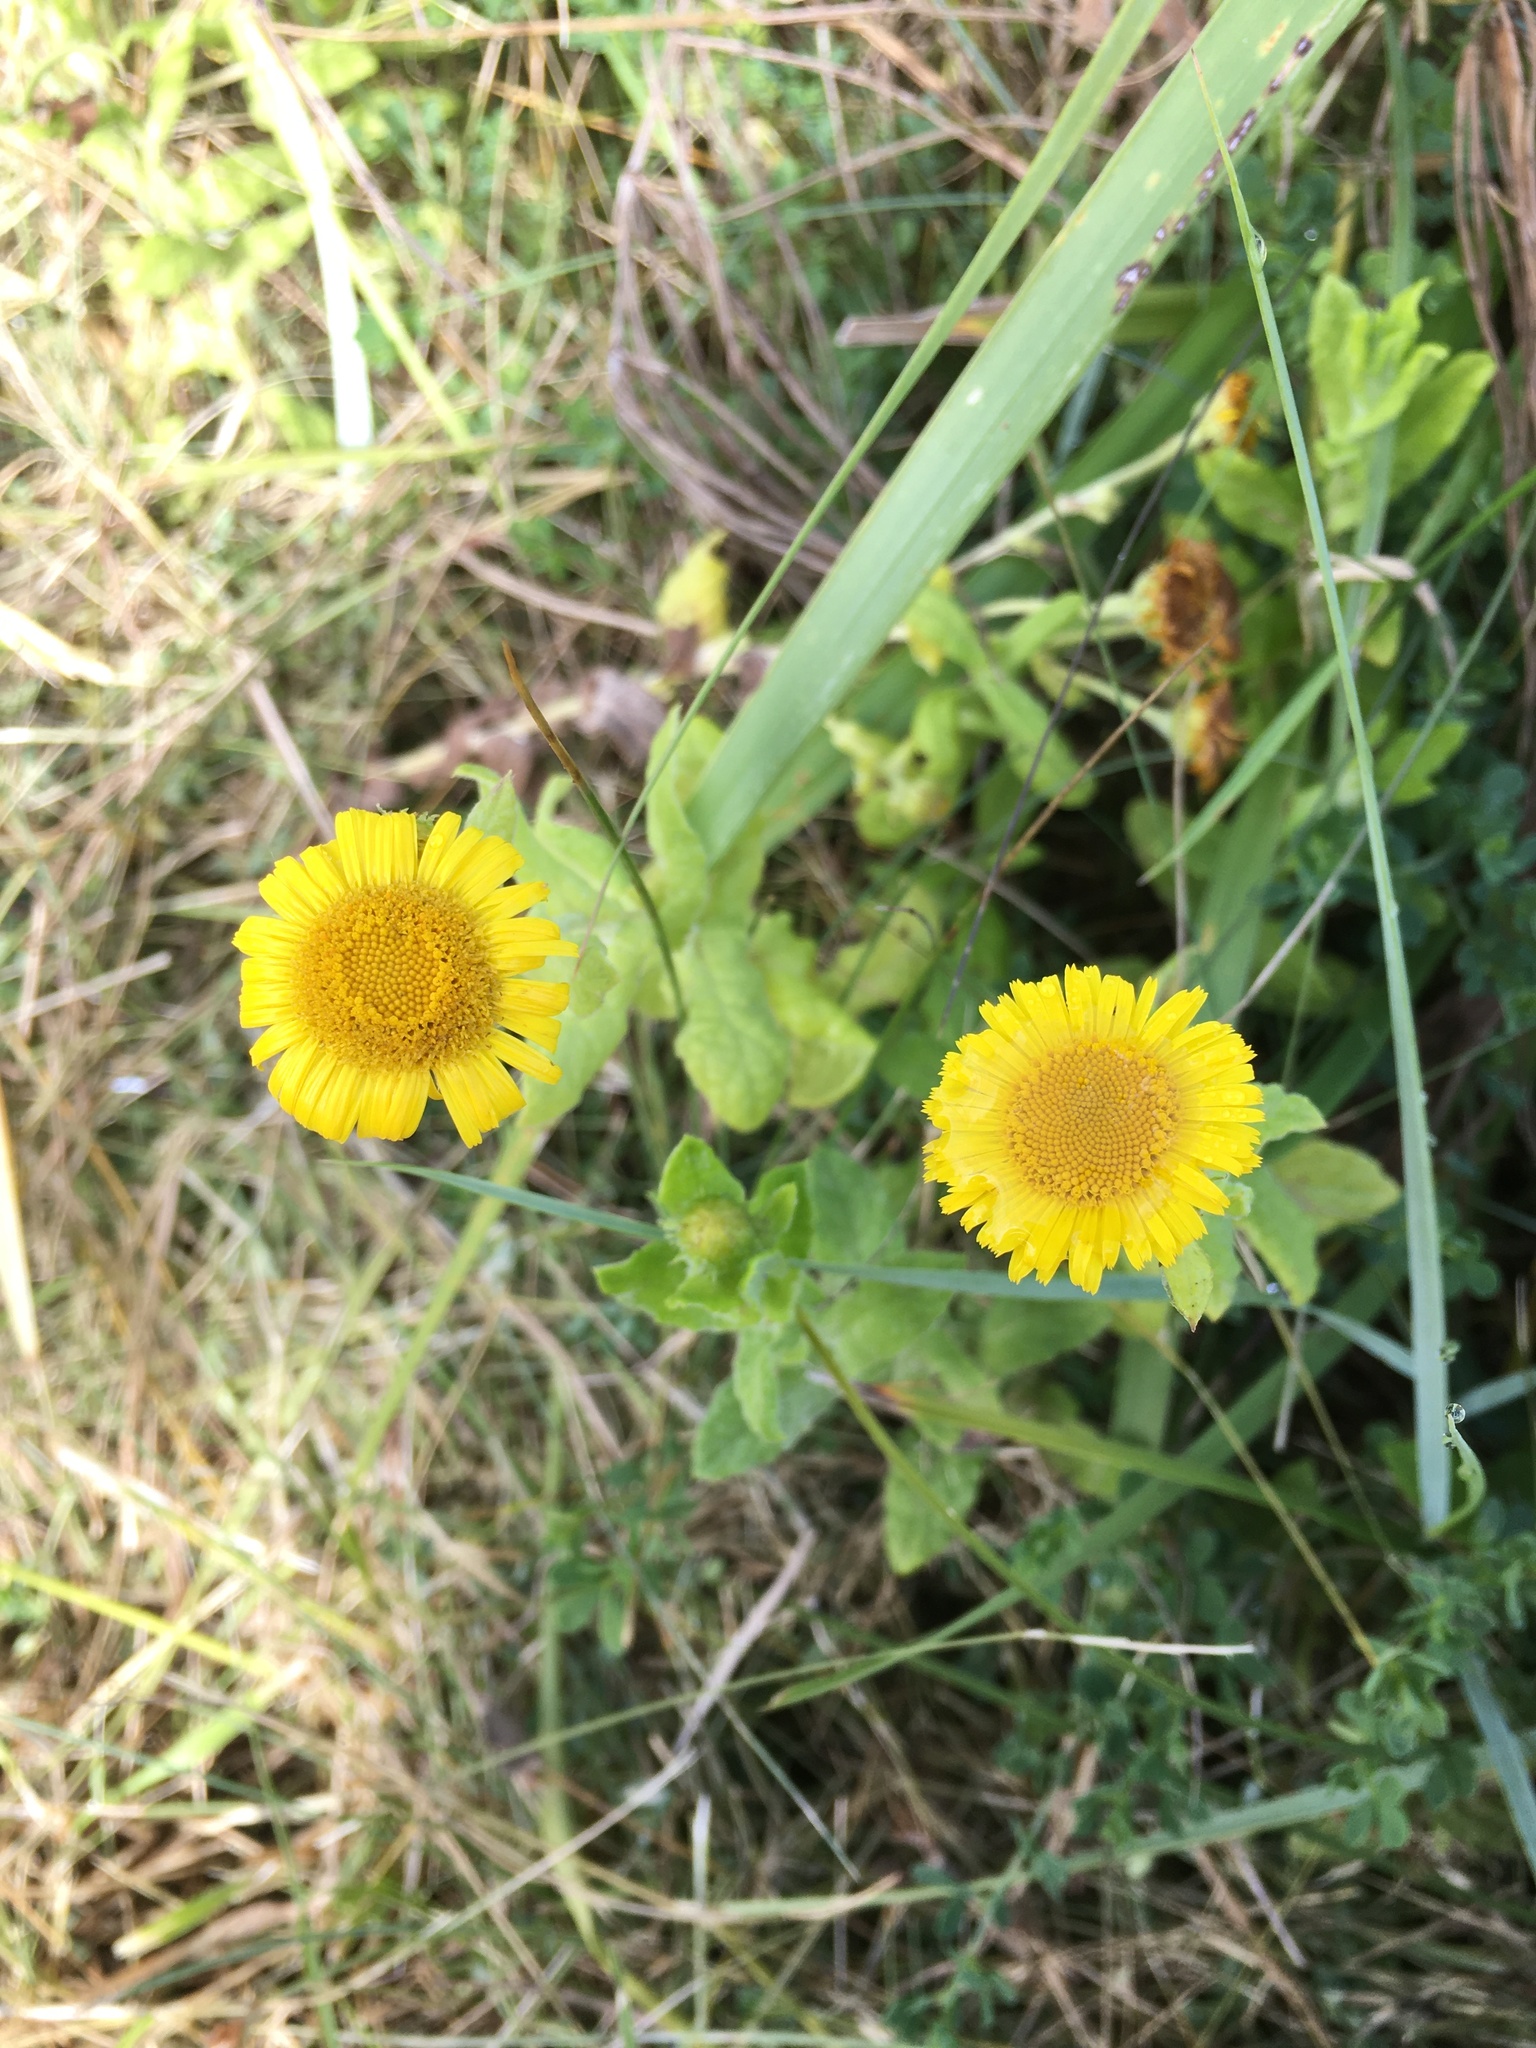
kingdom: Plantae
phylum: Tracheophyta
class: Magnoliopsida
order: Asterales
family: Asteraceae
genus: Pulicaria
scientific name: Pulicaria dysenterica
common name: Common fleabane
